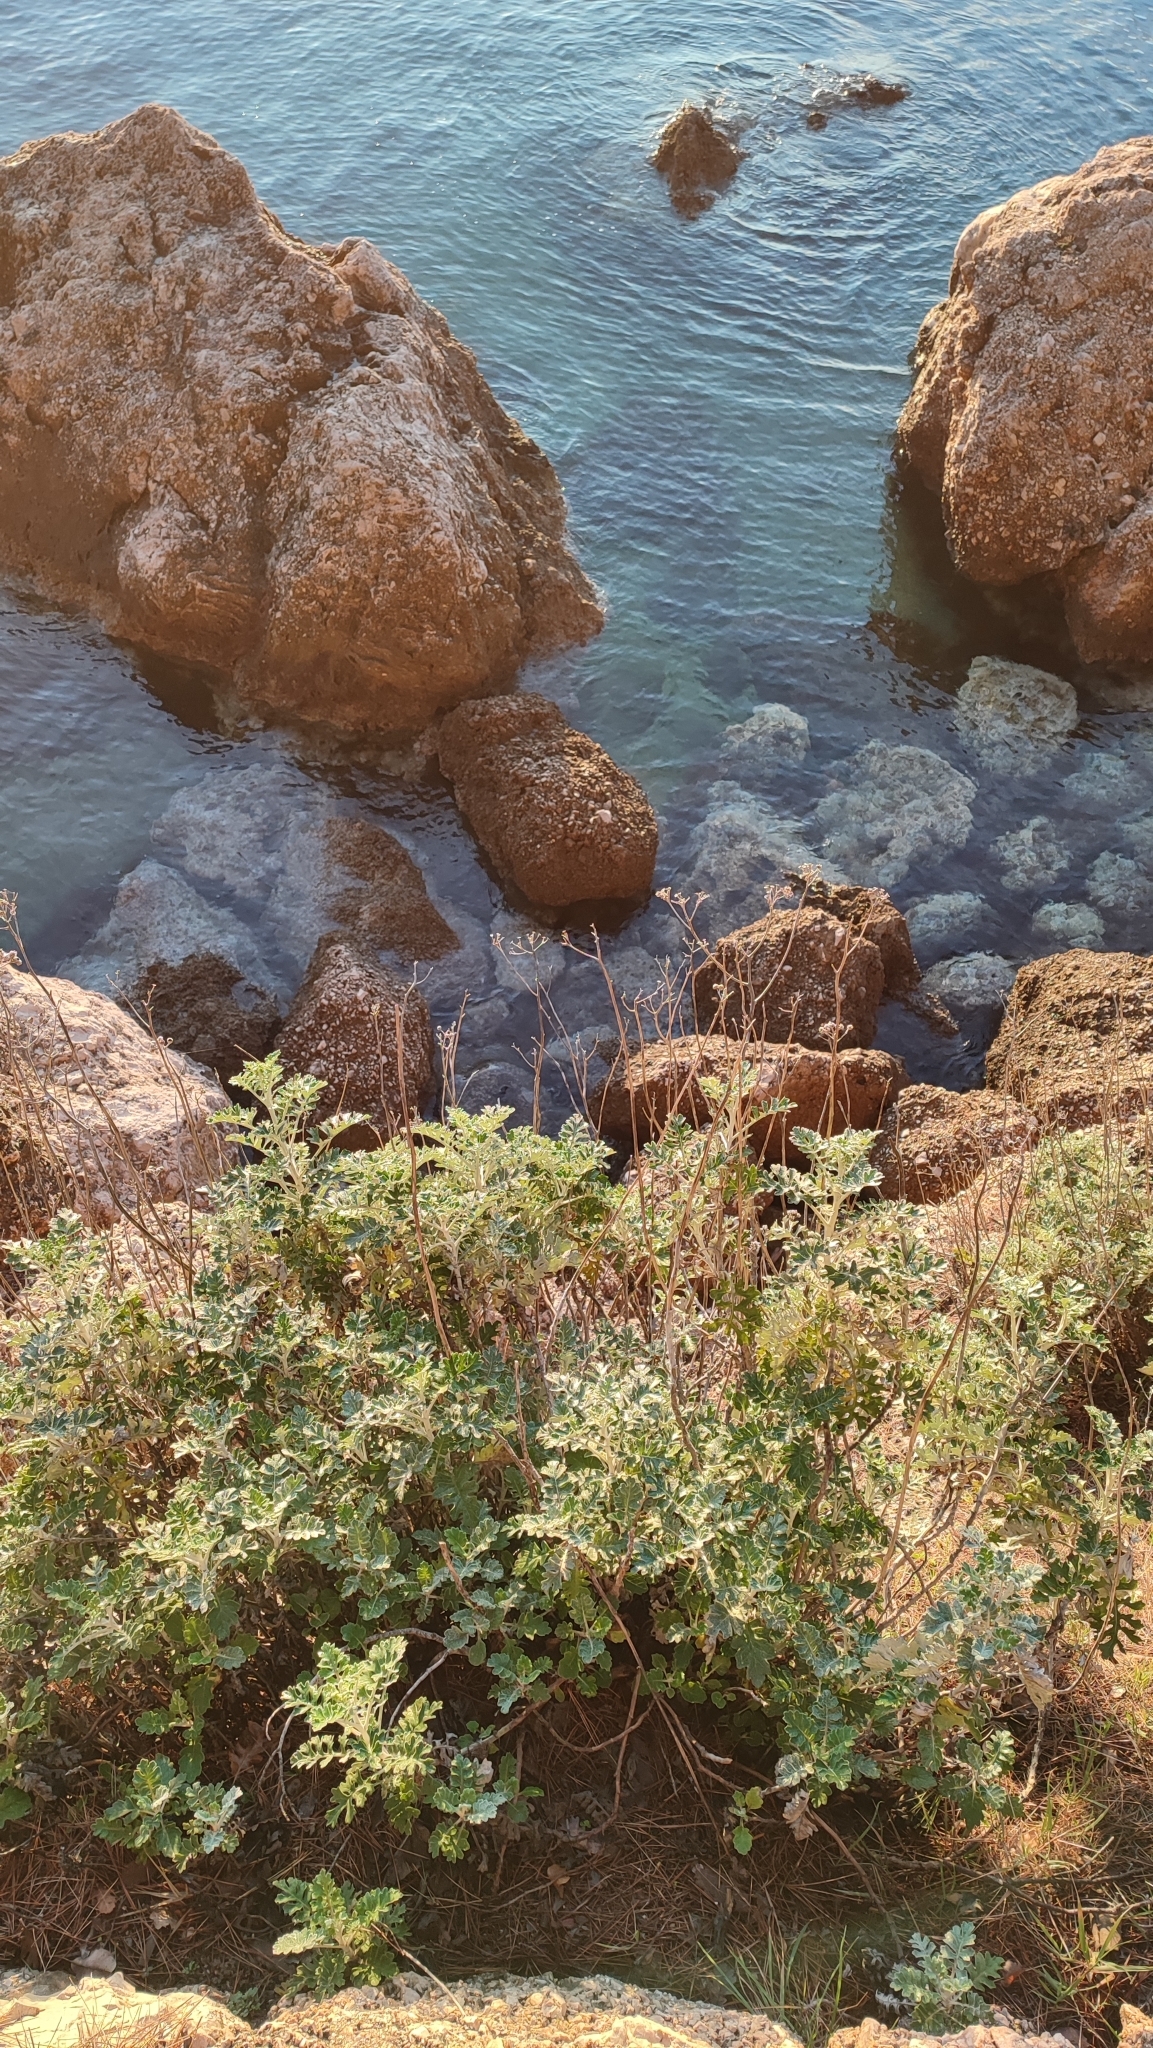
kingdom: Plantae
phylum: Tracheophyta
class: Magnoliopsida
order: Asterales
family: Asteraceae
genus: Jacobaea
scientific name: Jacobaea maritima
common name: Silver ragwort
